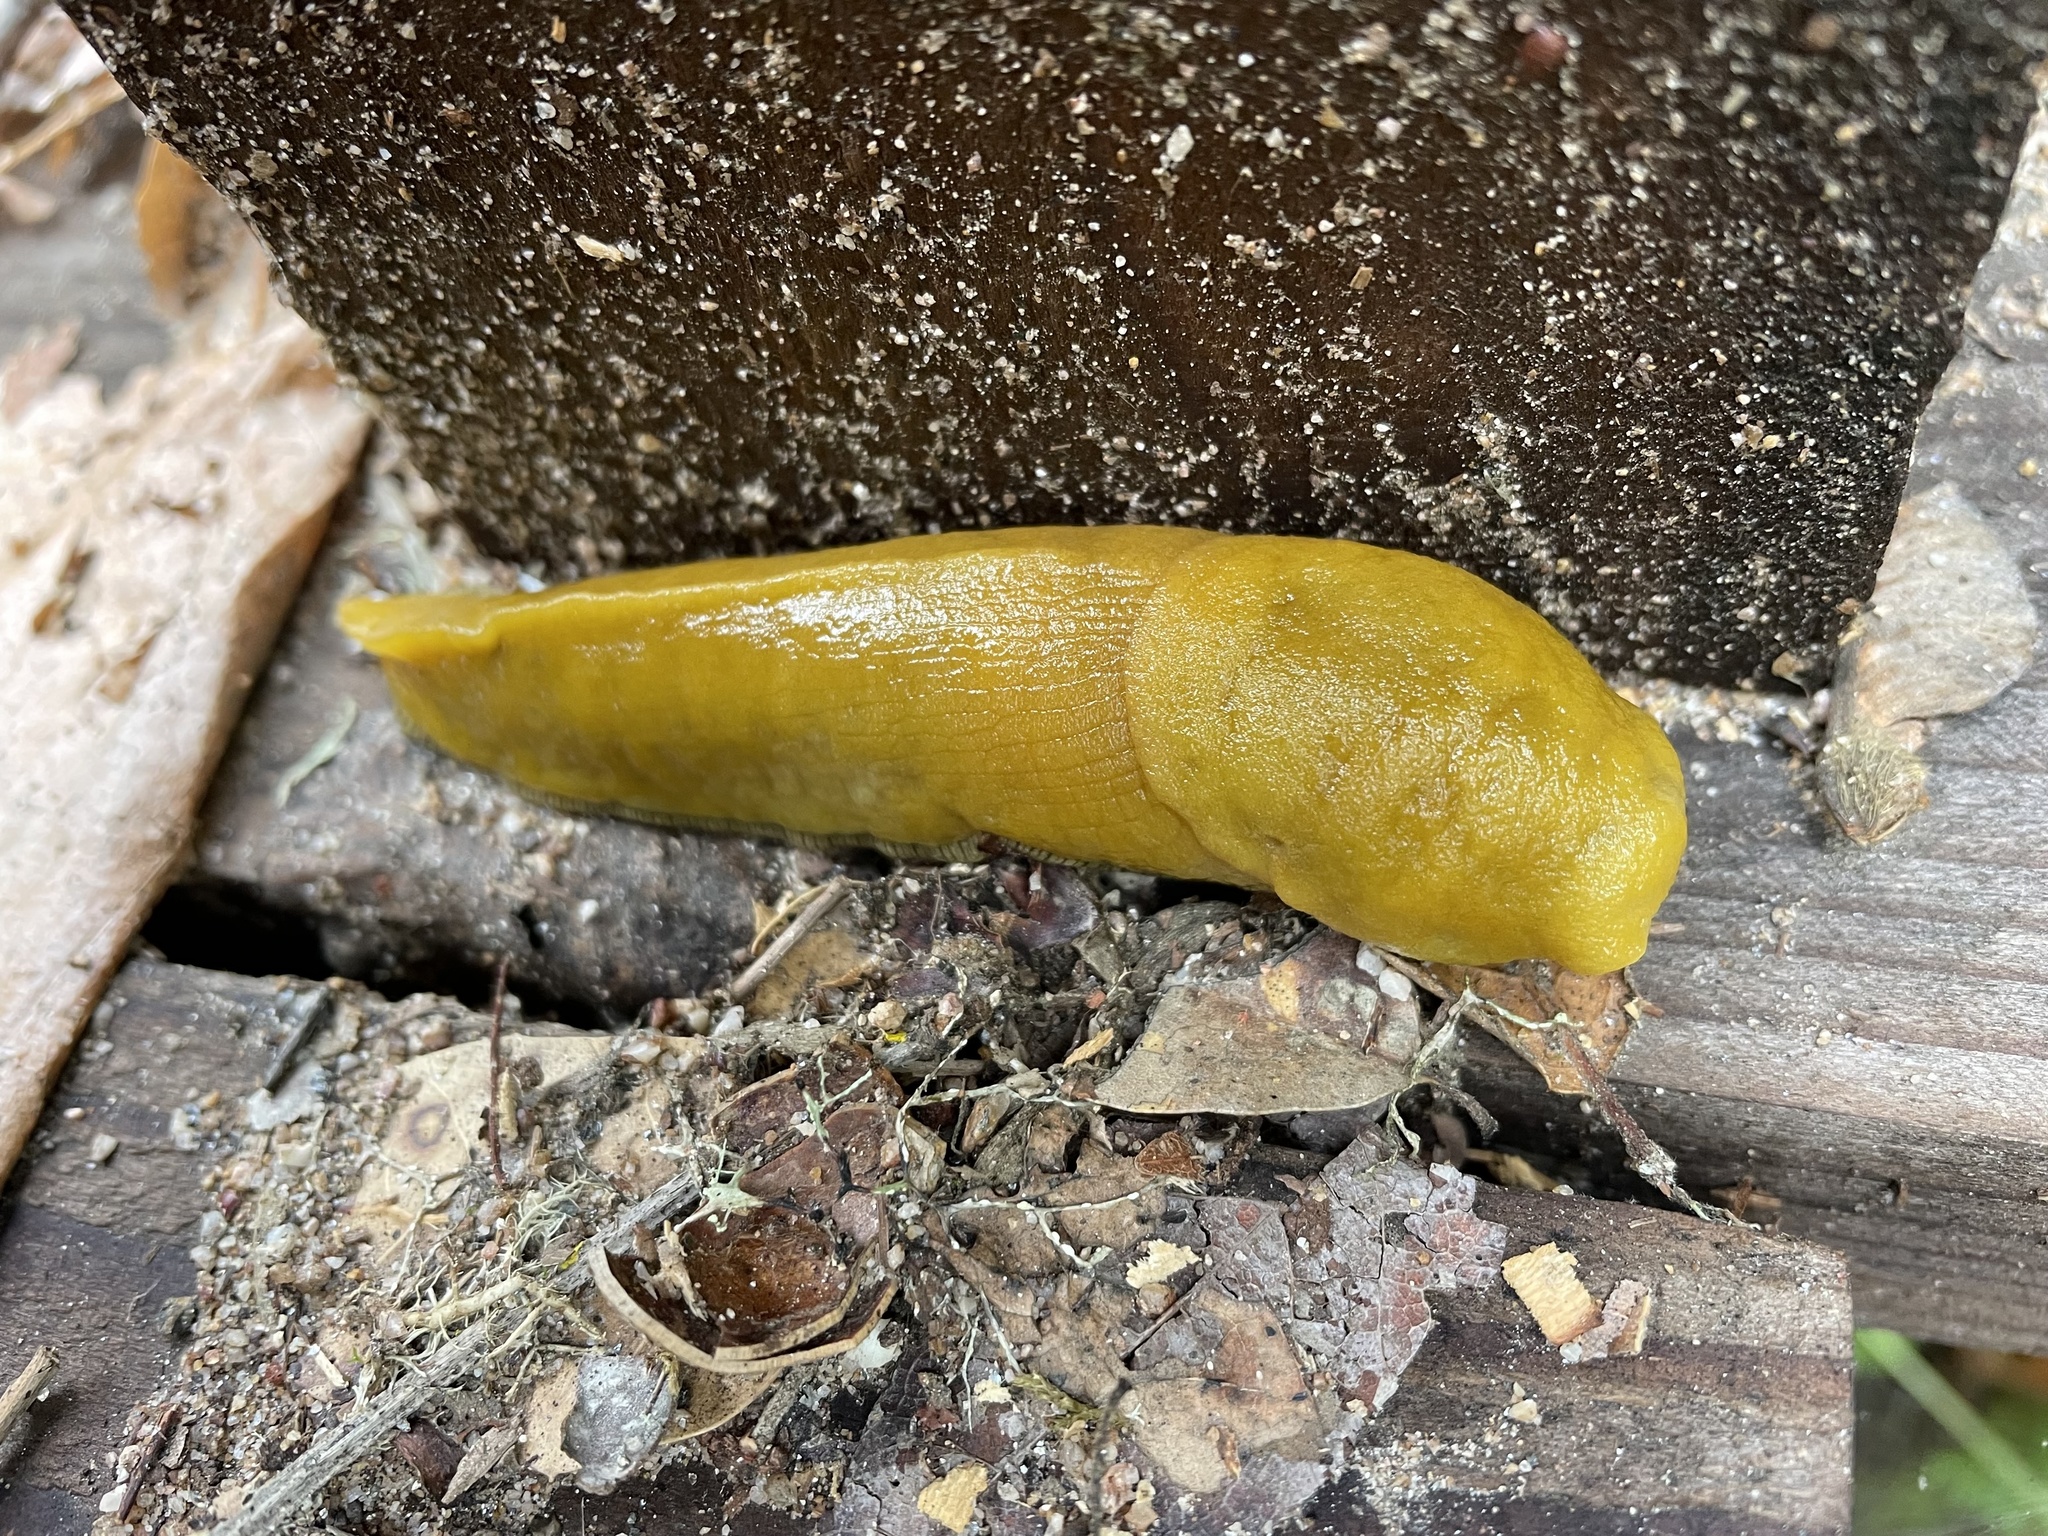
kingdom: Animalia
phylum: Mollusca
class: Gastropoda
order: Stylommatophora
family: Ariolimacidae
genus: Ariolimax
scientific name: Ariolimax stramineus
